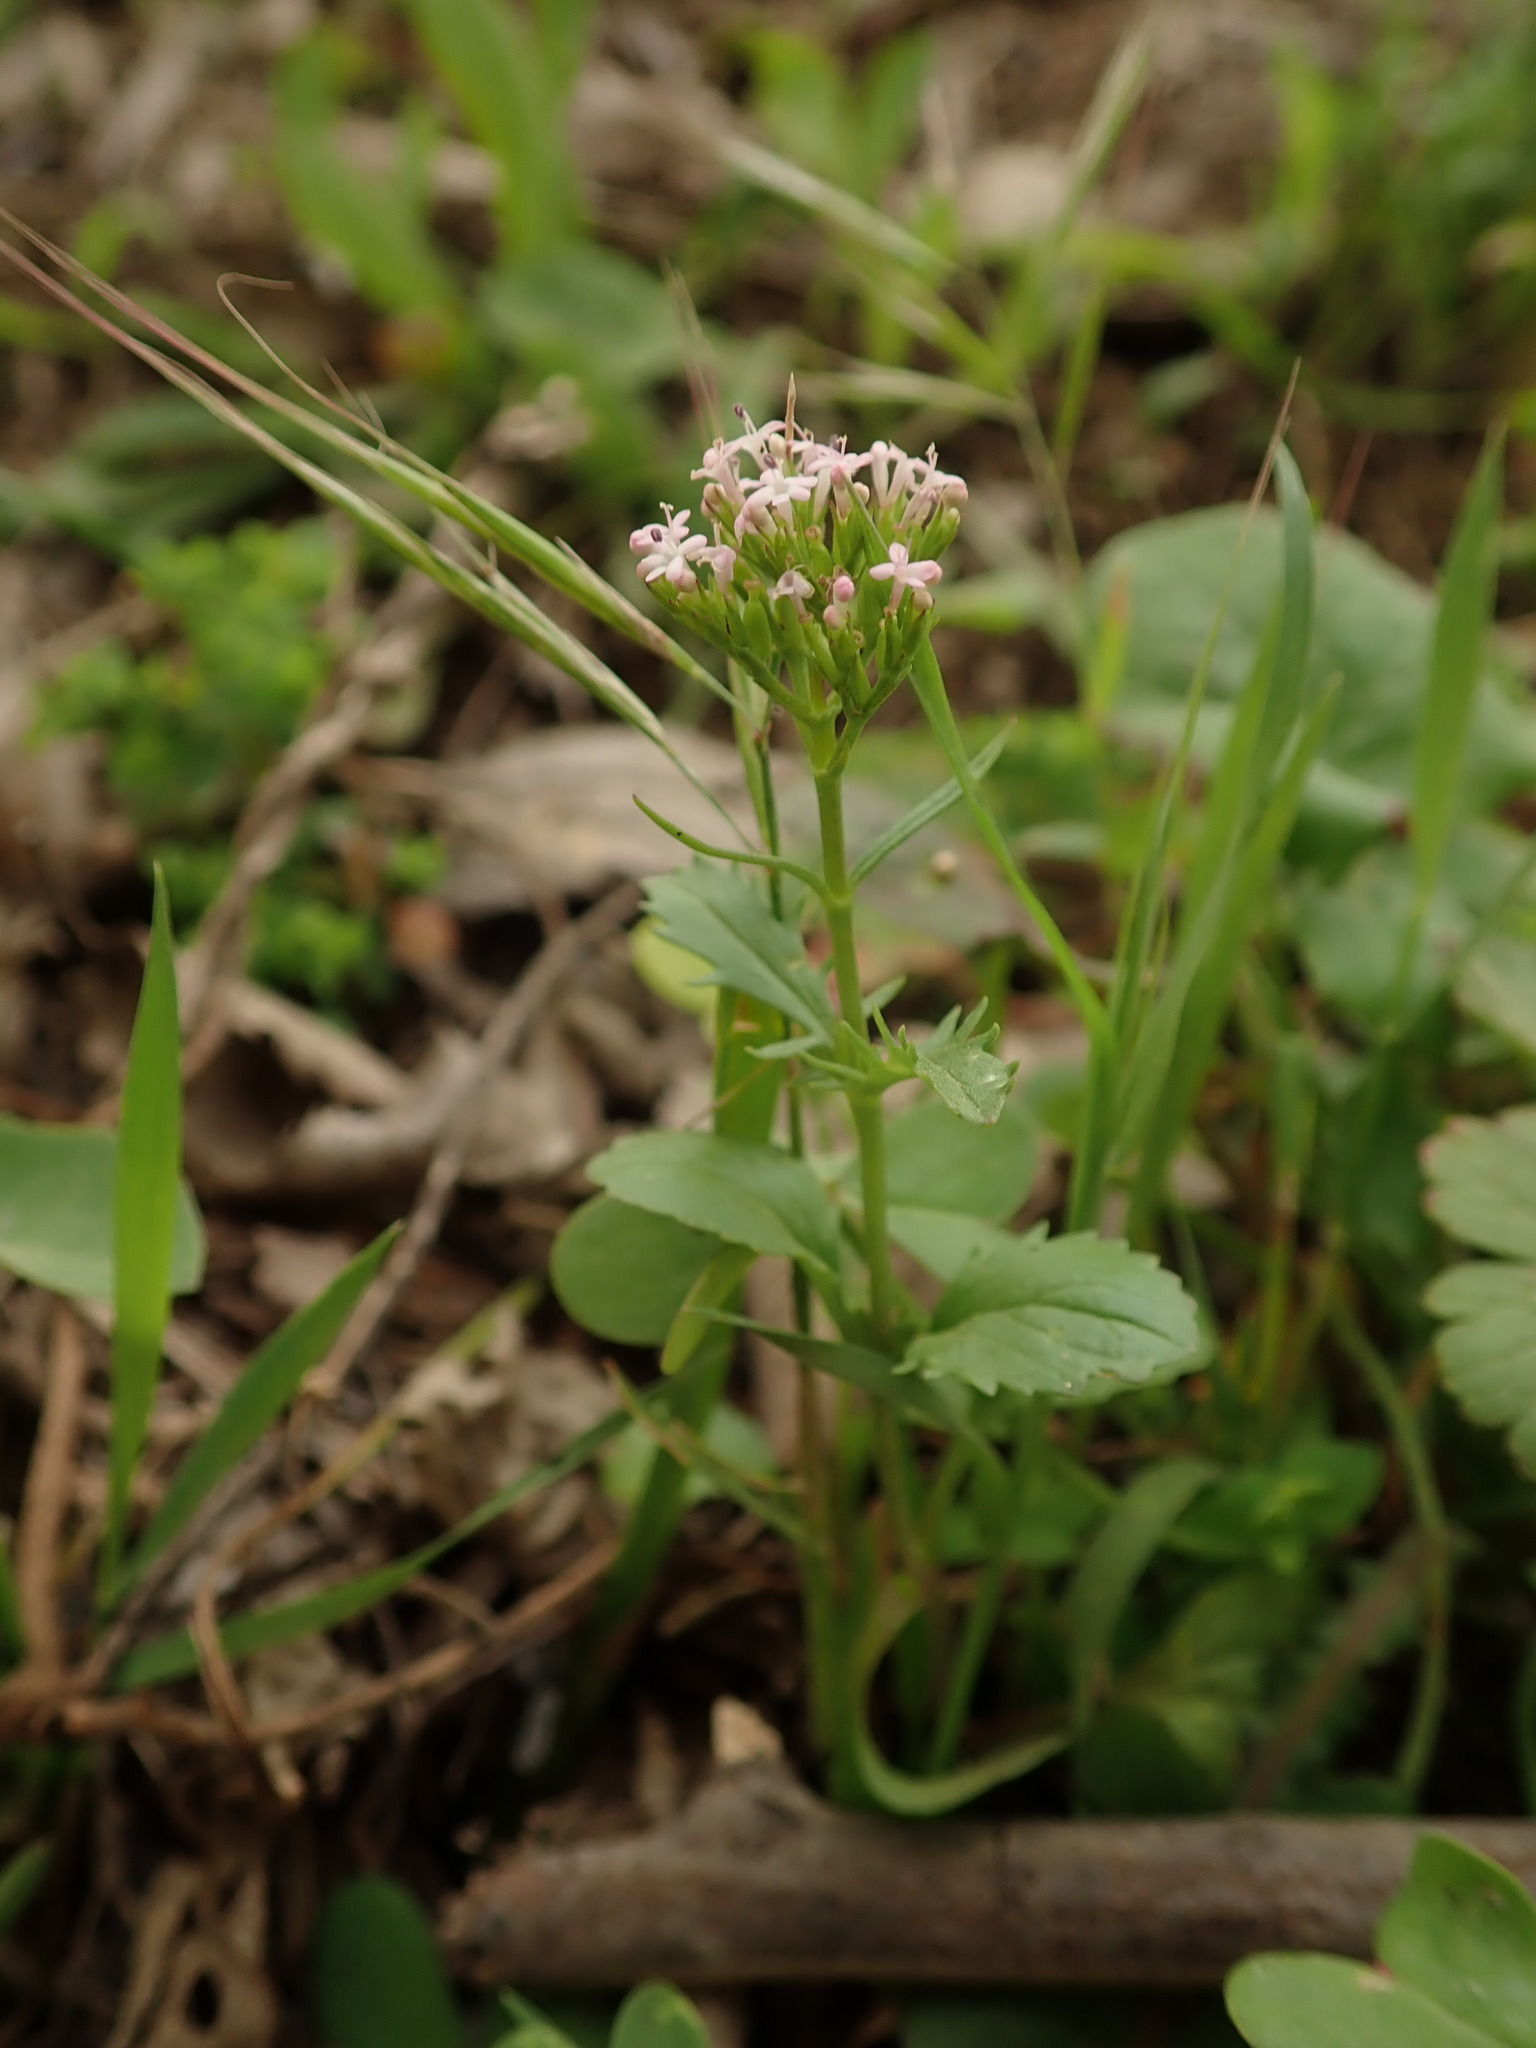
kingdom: Plantae
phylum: Tracheophyta
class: Magnoliopsida
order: Dipsacales
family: Caprifoliaceae
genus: Centranthus
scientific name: Centranthus calcitrapae
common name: Annual valerian
